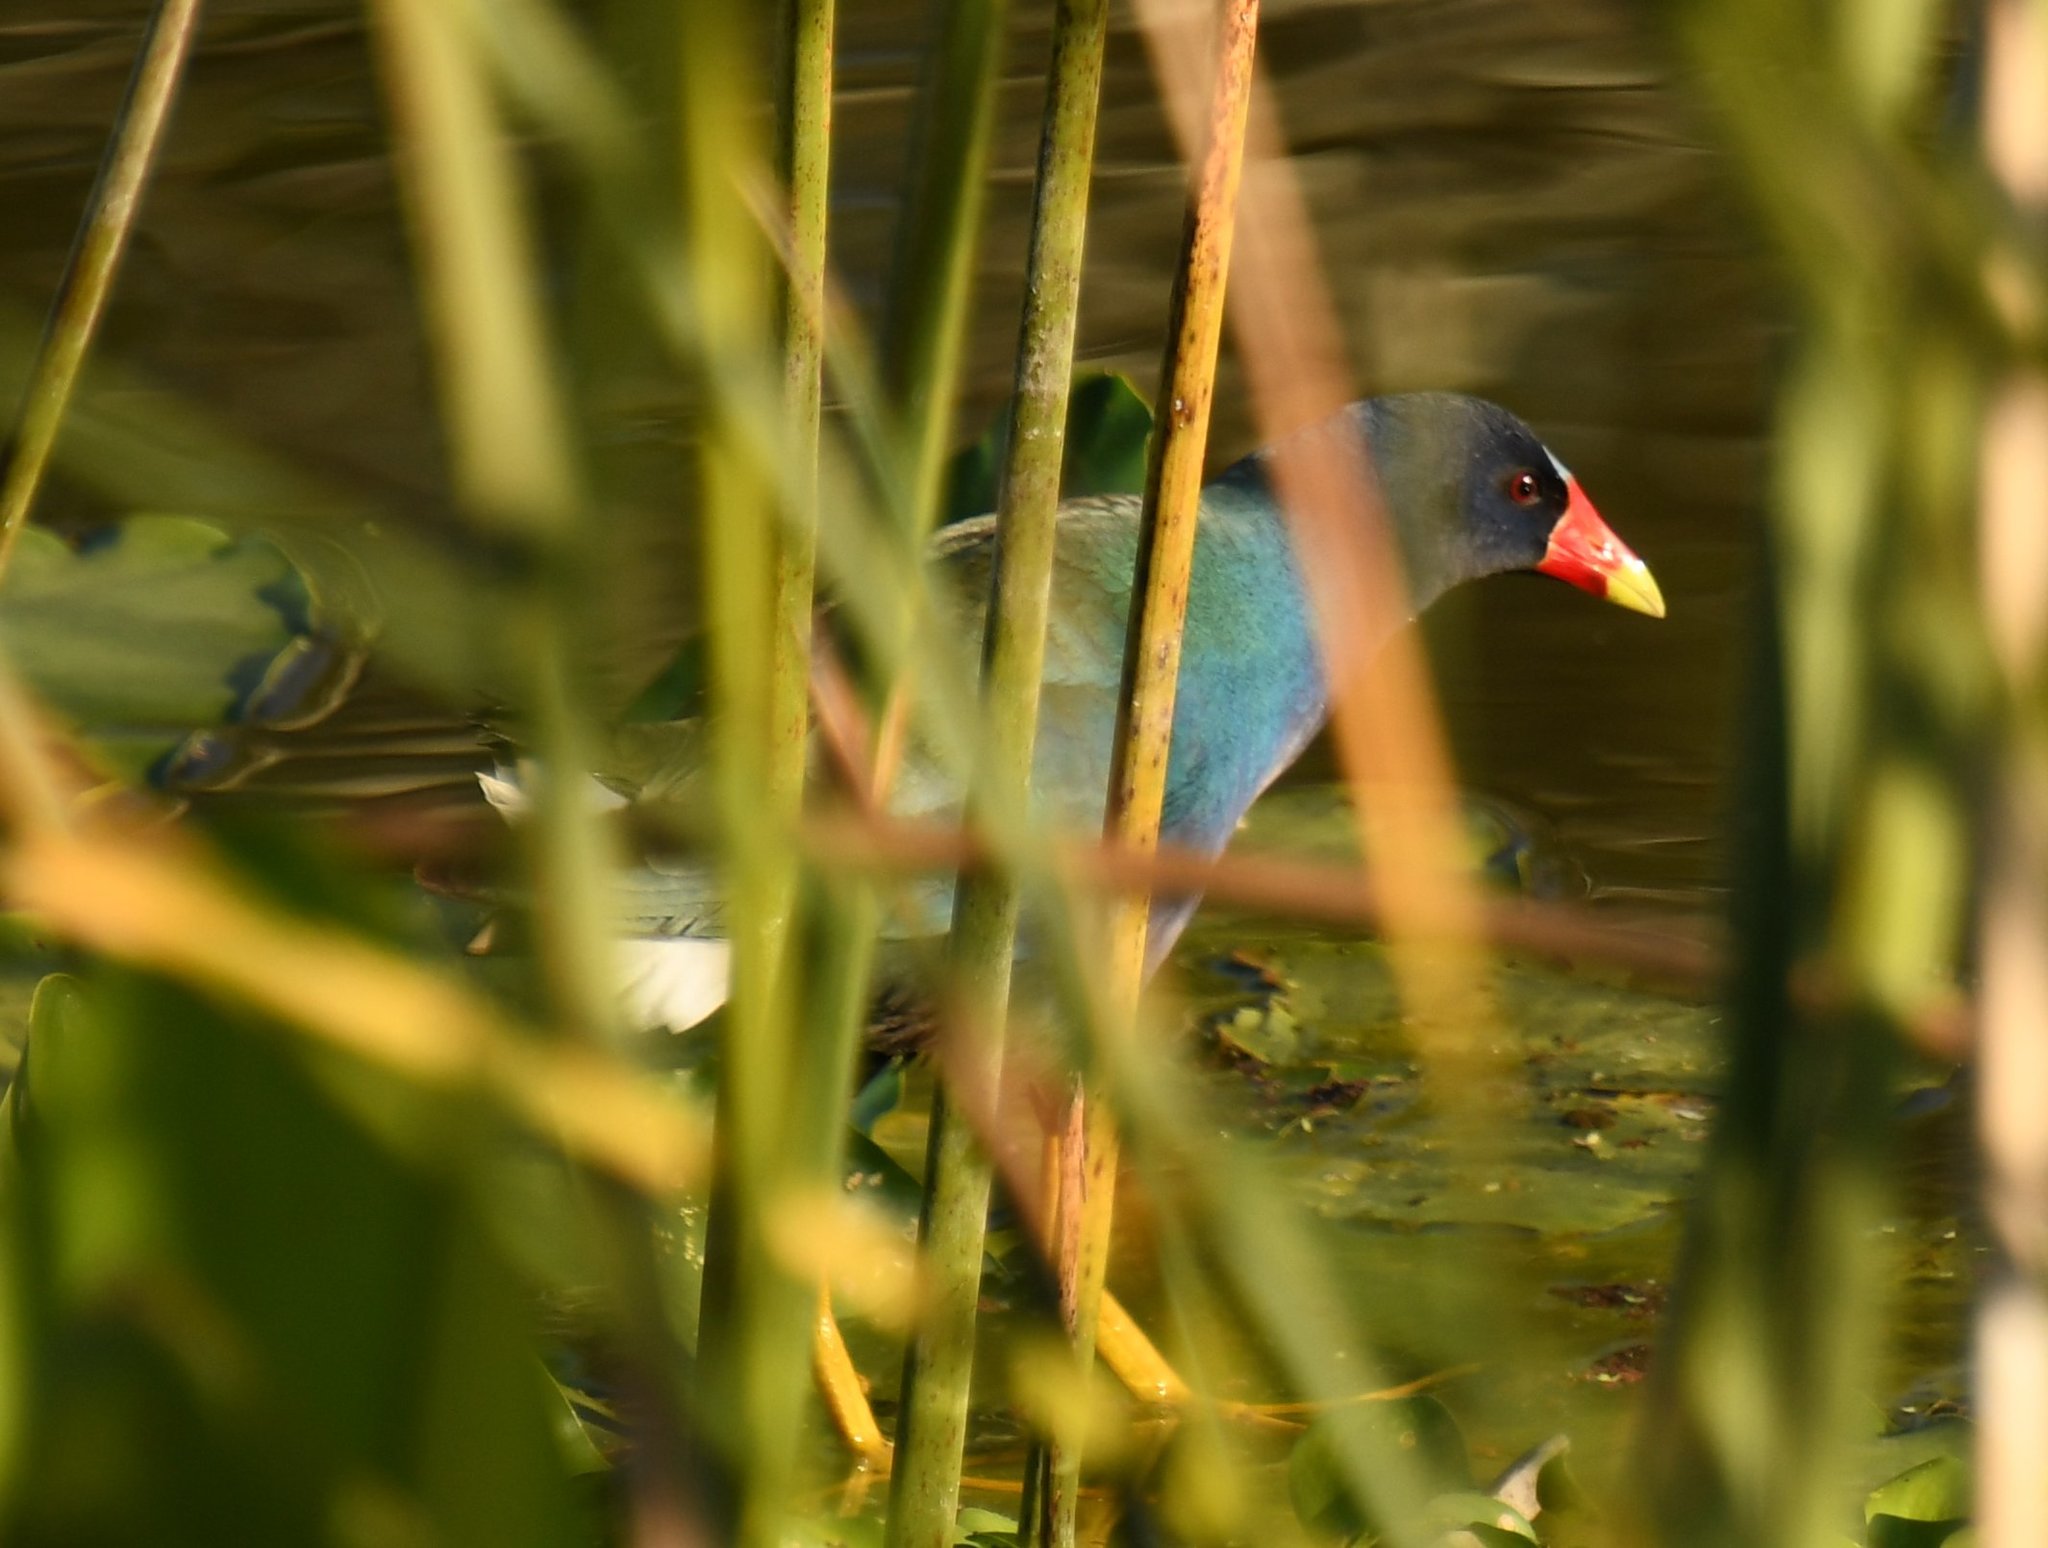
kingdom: Animalia
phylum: Chordata
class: Aves
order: Gruiformes
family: Rallidae
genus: Porphyrio
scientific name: Porphyrio martinica
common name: Purple gallinule
